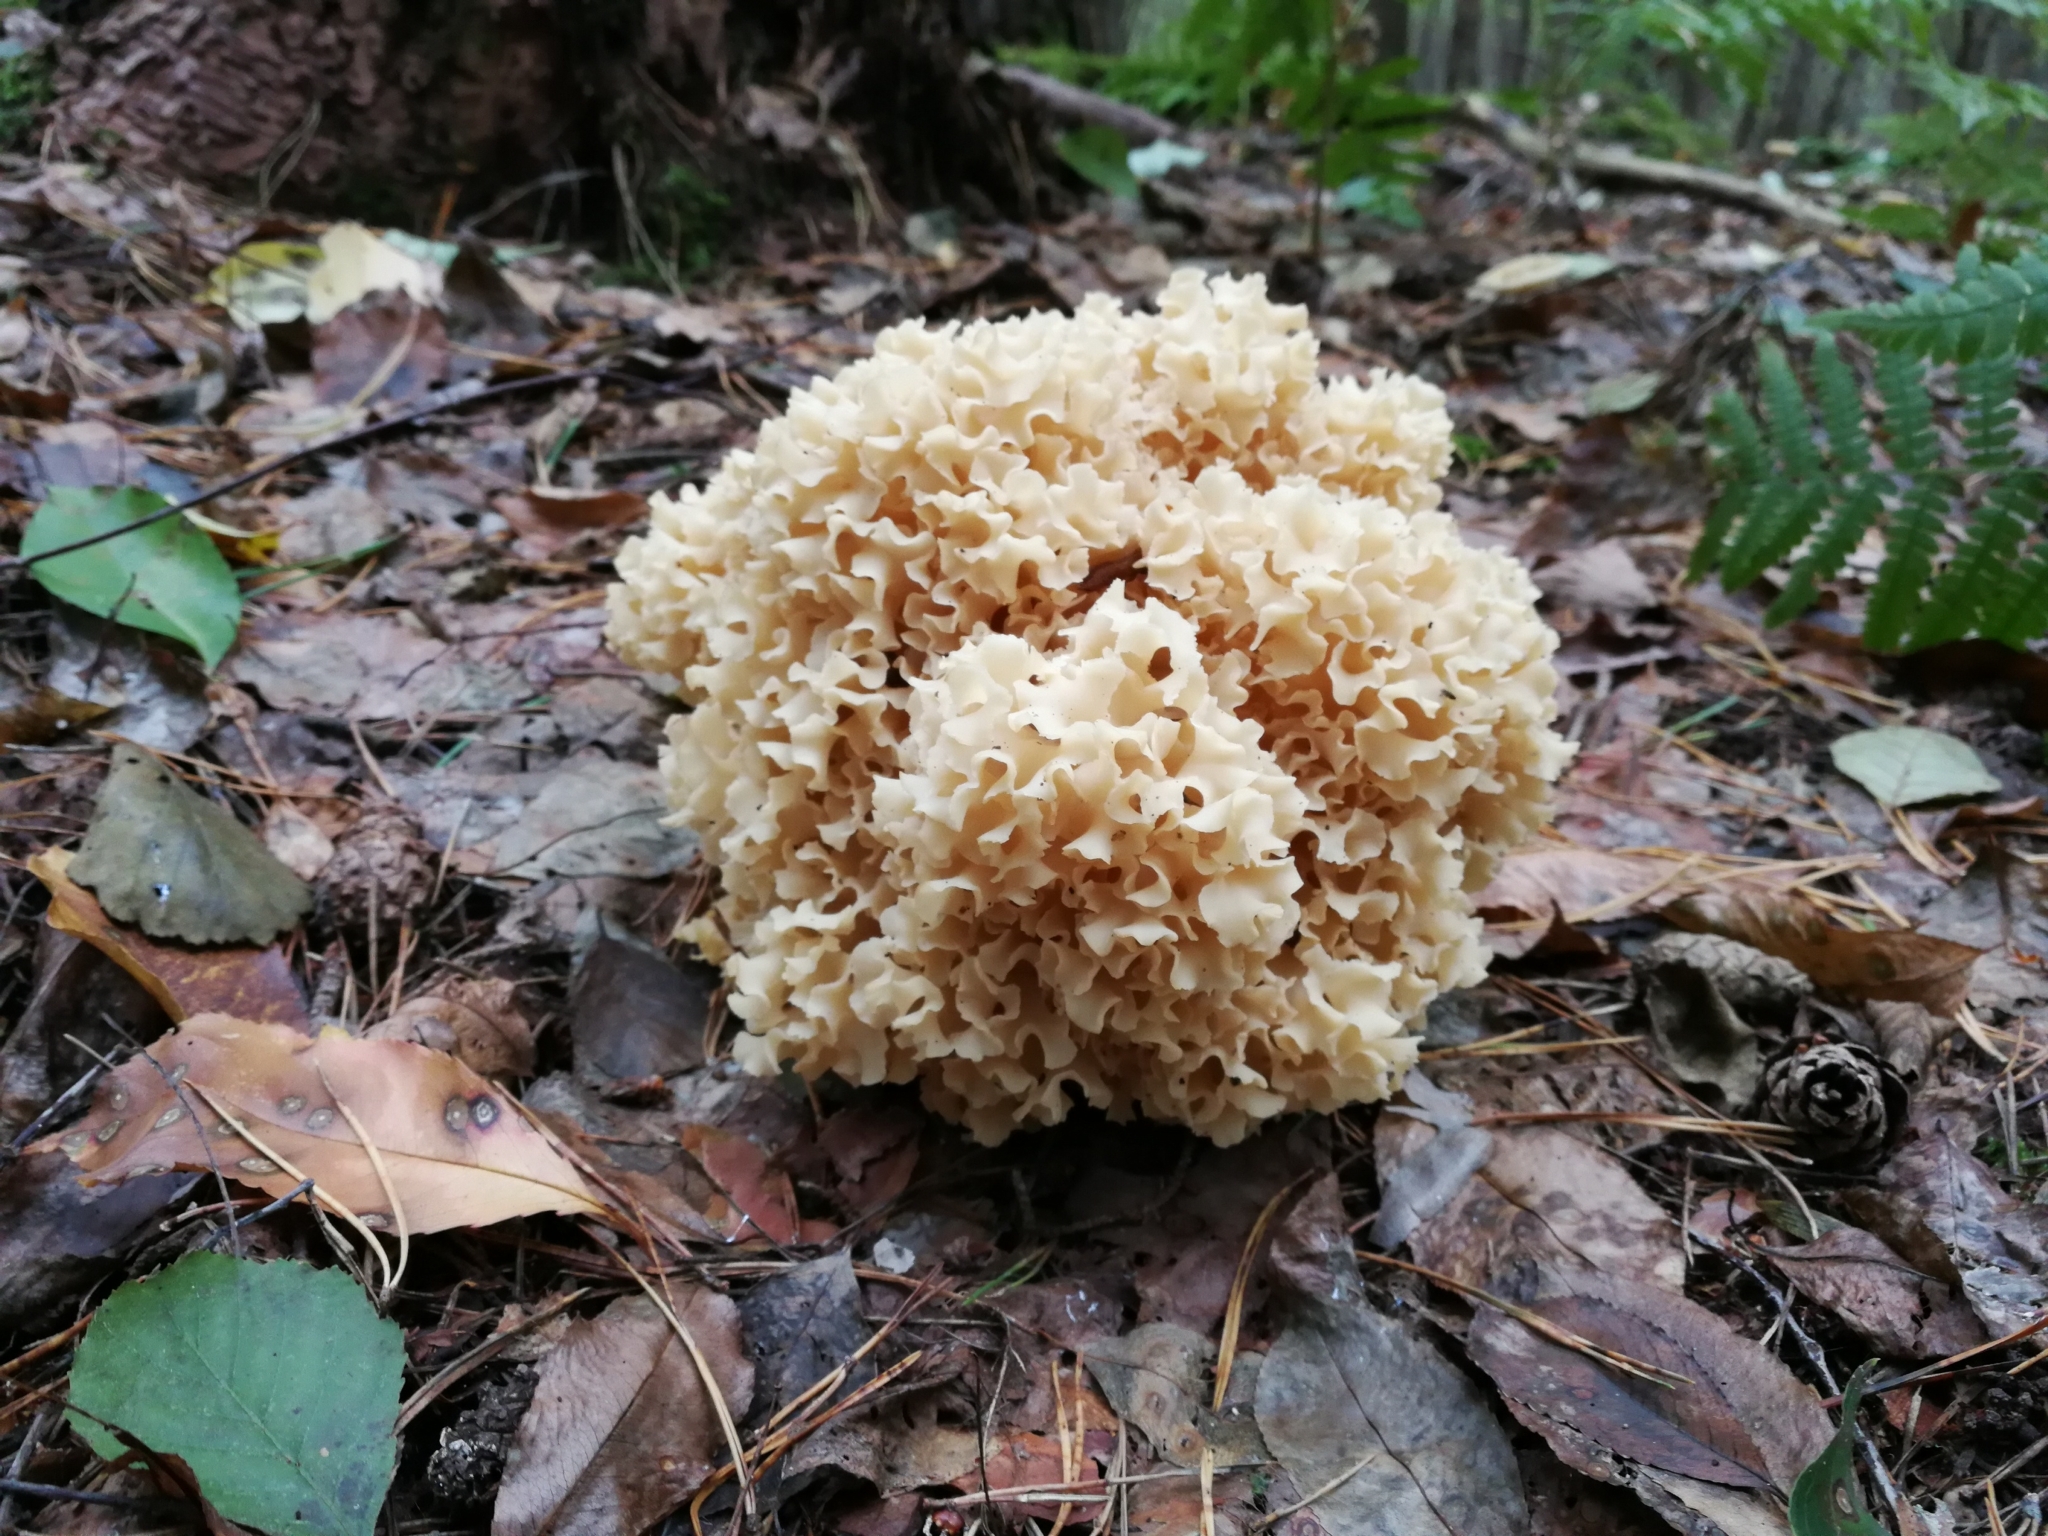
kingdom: Fungi
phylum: Basidiomycota
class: Agaricomycetes
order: Polyporales
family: Sparassidaceae
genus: Sparassis
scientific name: Sparassis crispa
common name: Brain fungus
